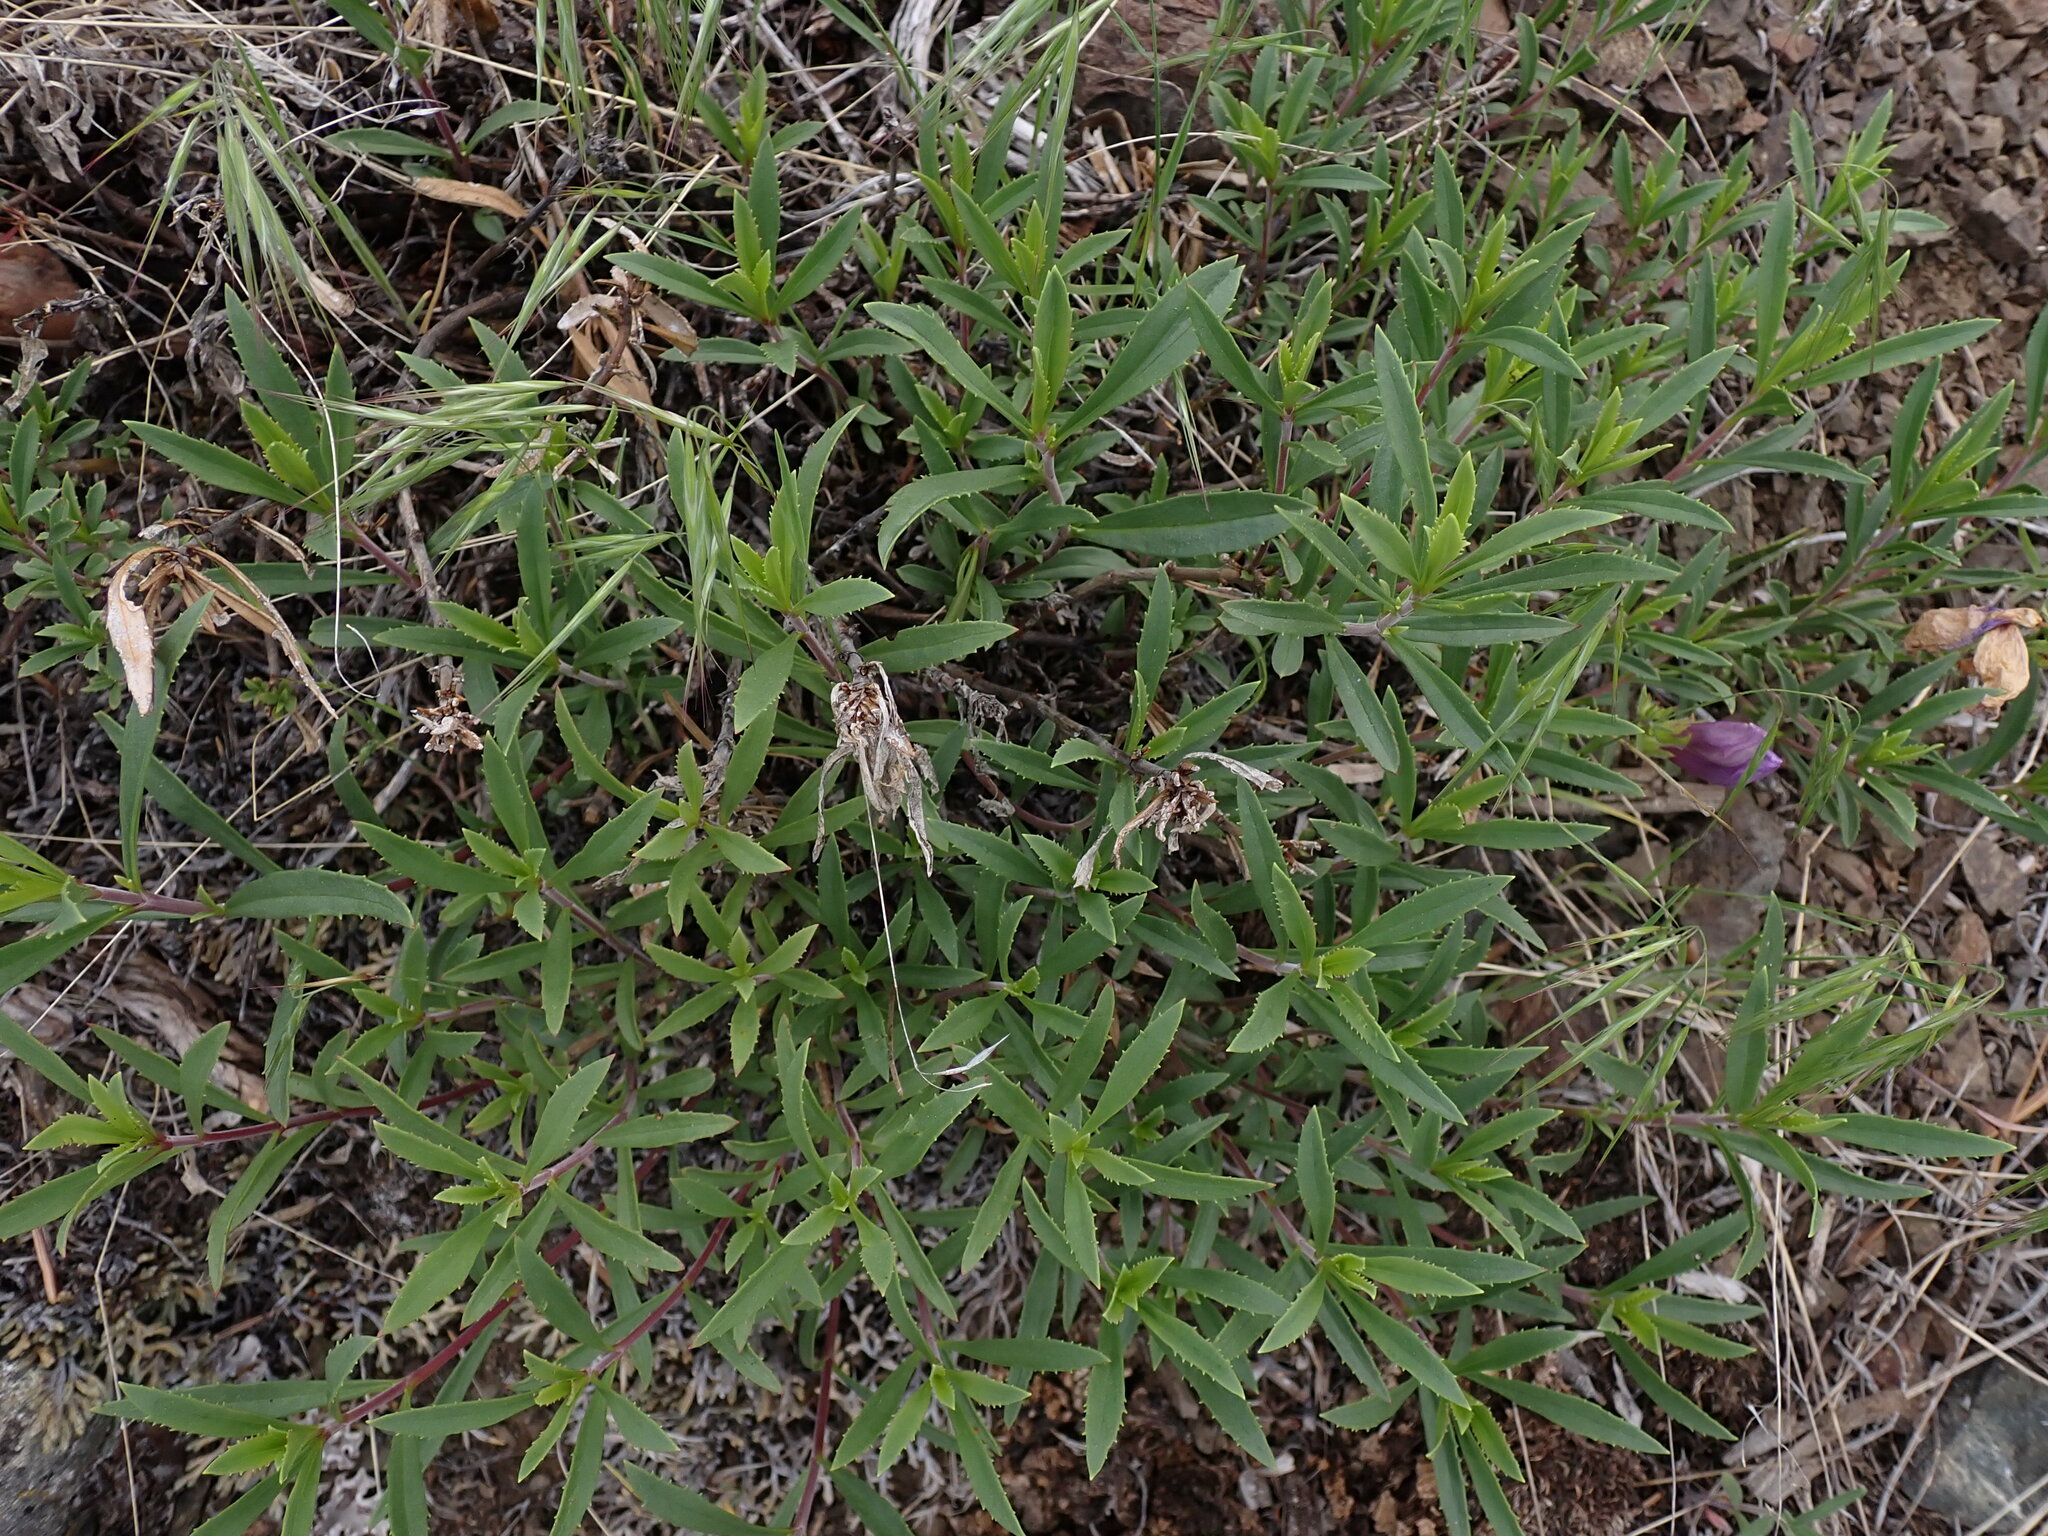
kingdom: Plantae
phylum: Tracheophyta
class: Magnoliopsida
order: Lamiales
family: Plantaginaceae
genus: Penstemon
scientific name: Penstemon fruticosus
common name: Bush penstemon
